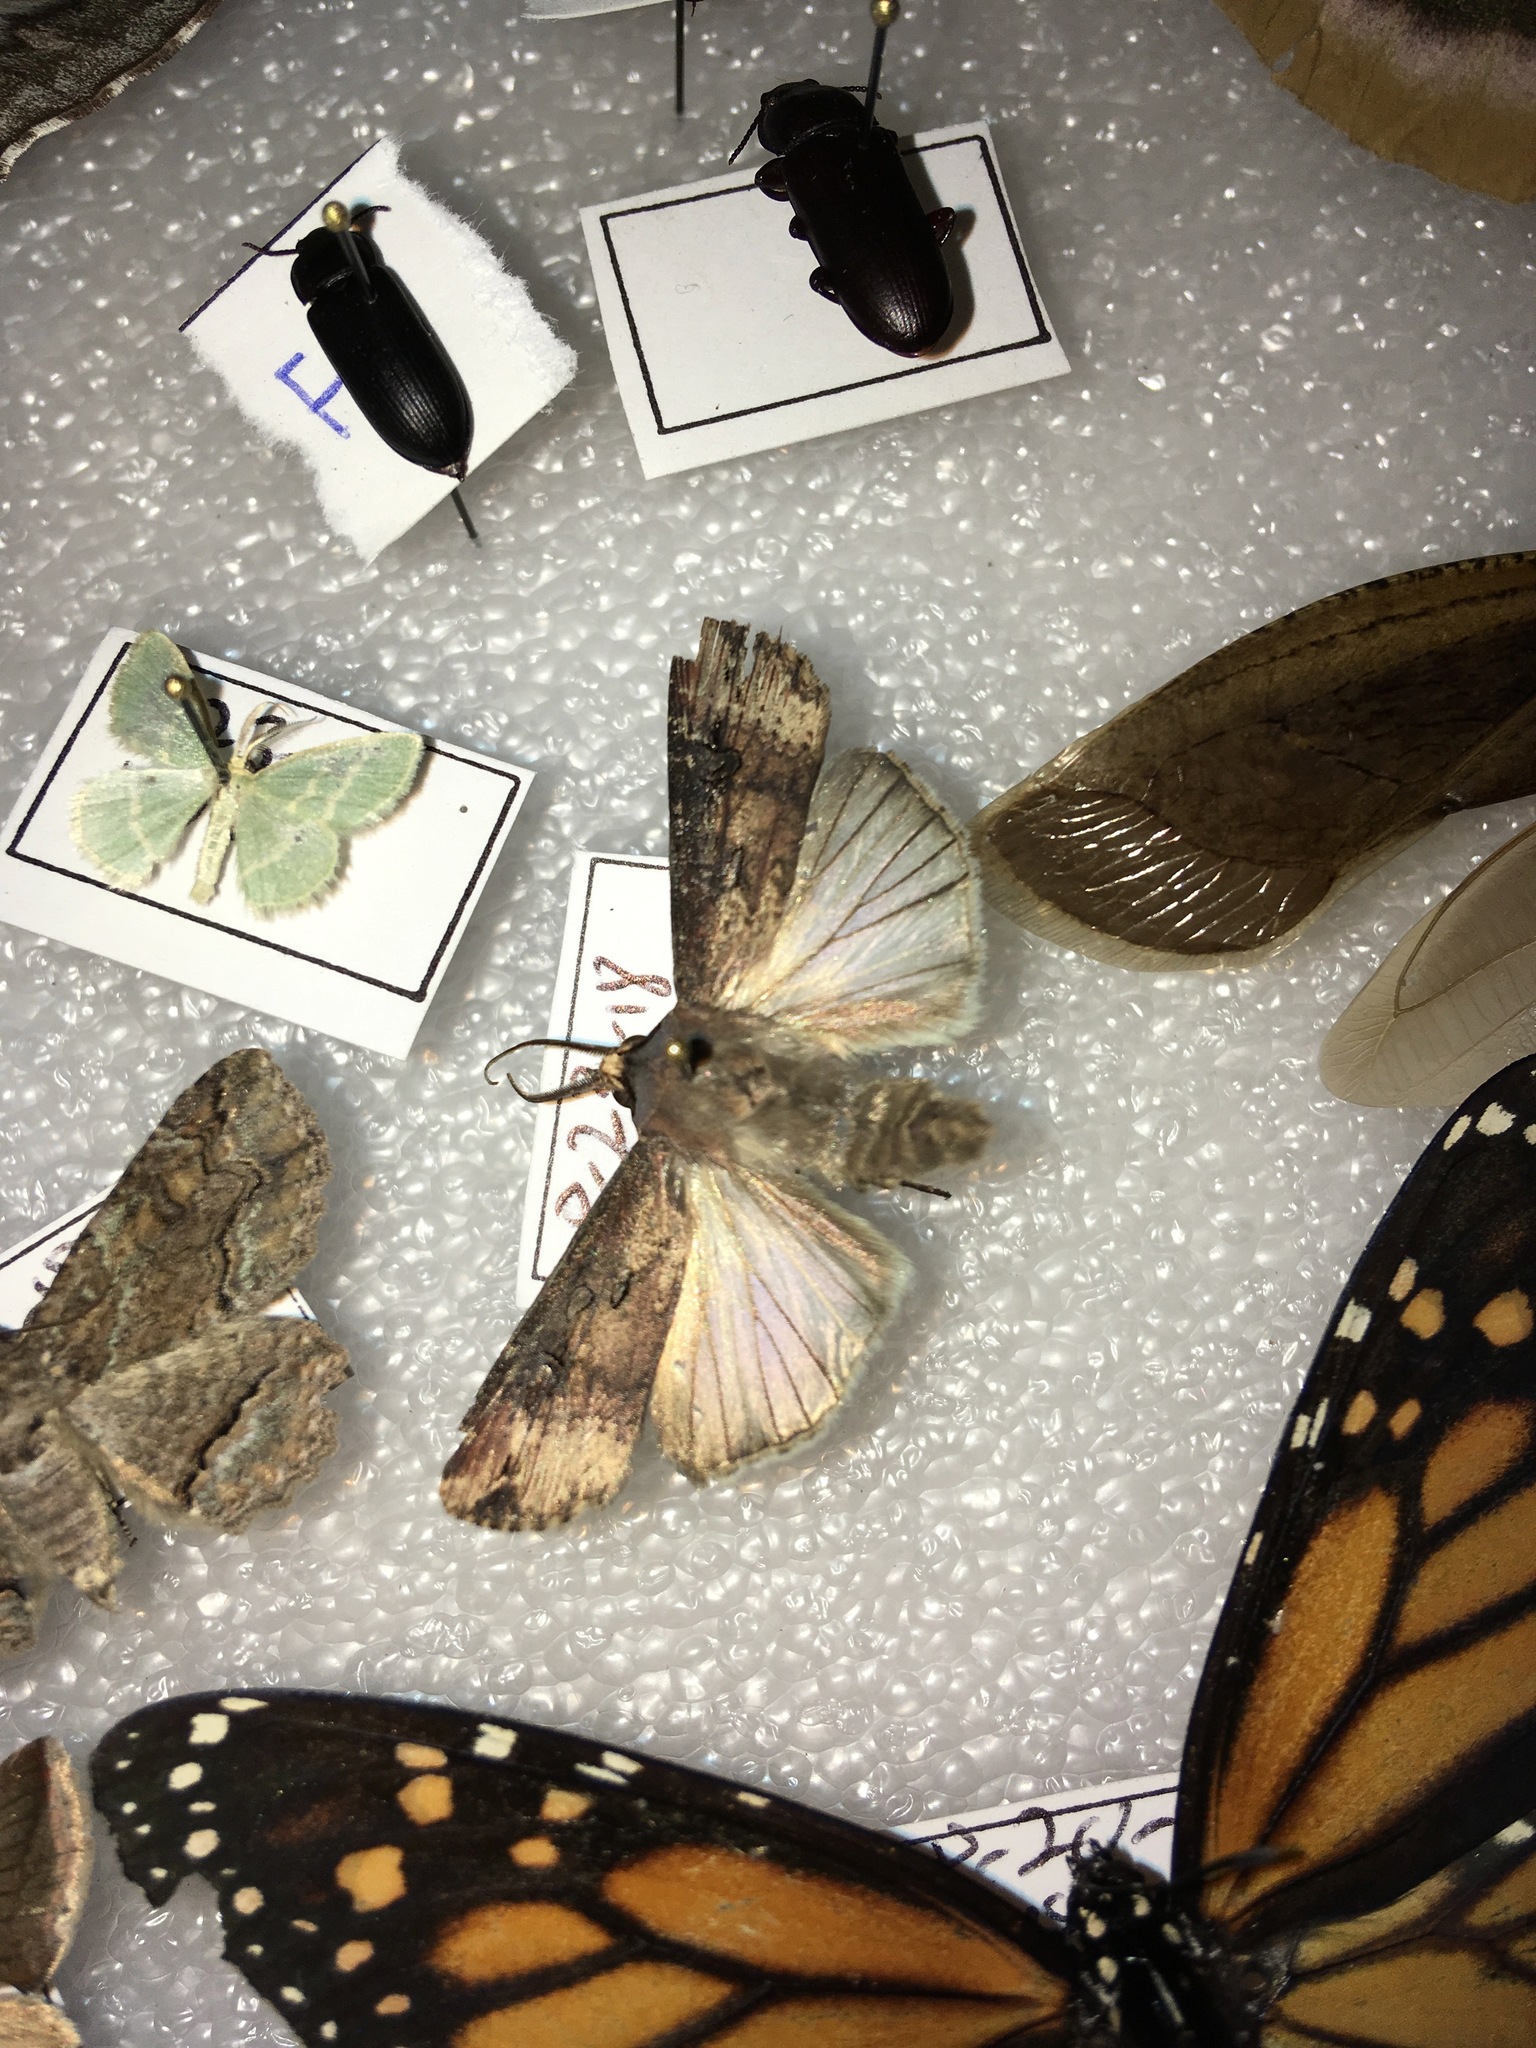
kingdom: Animalia
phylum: Arthropoda
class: Insecta
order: Lepidoptera
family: Noctuidae
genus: Agrotis
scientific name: Agrotis ipsilon
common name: Dark sword-grass
